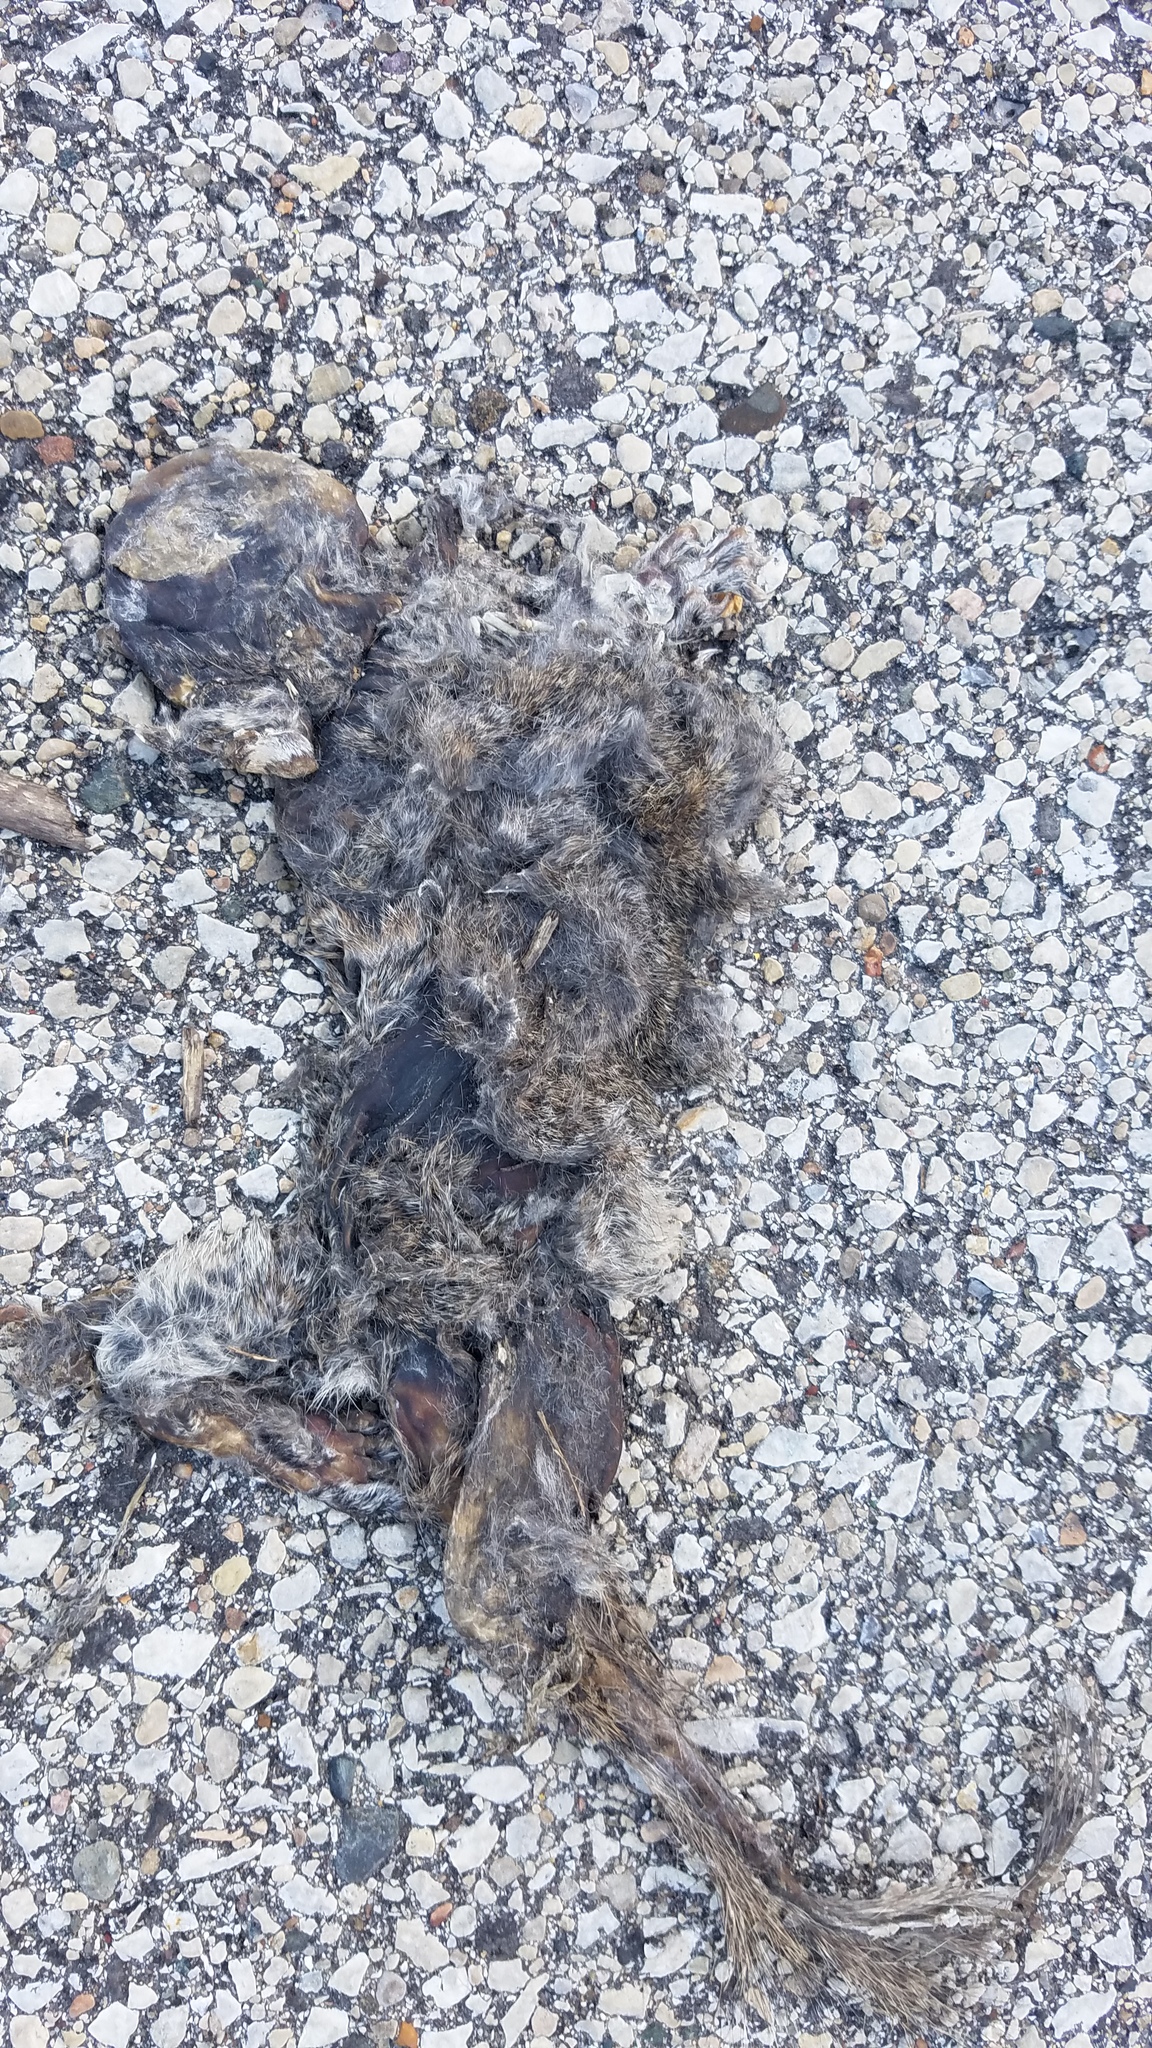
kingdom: Animalia
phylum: Chordata
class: Mammalia
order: Rodentia
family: Sciuridae
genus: Sciurus
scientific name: Sciurus carolinensis
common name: Eastern gray squirrel
